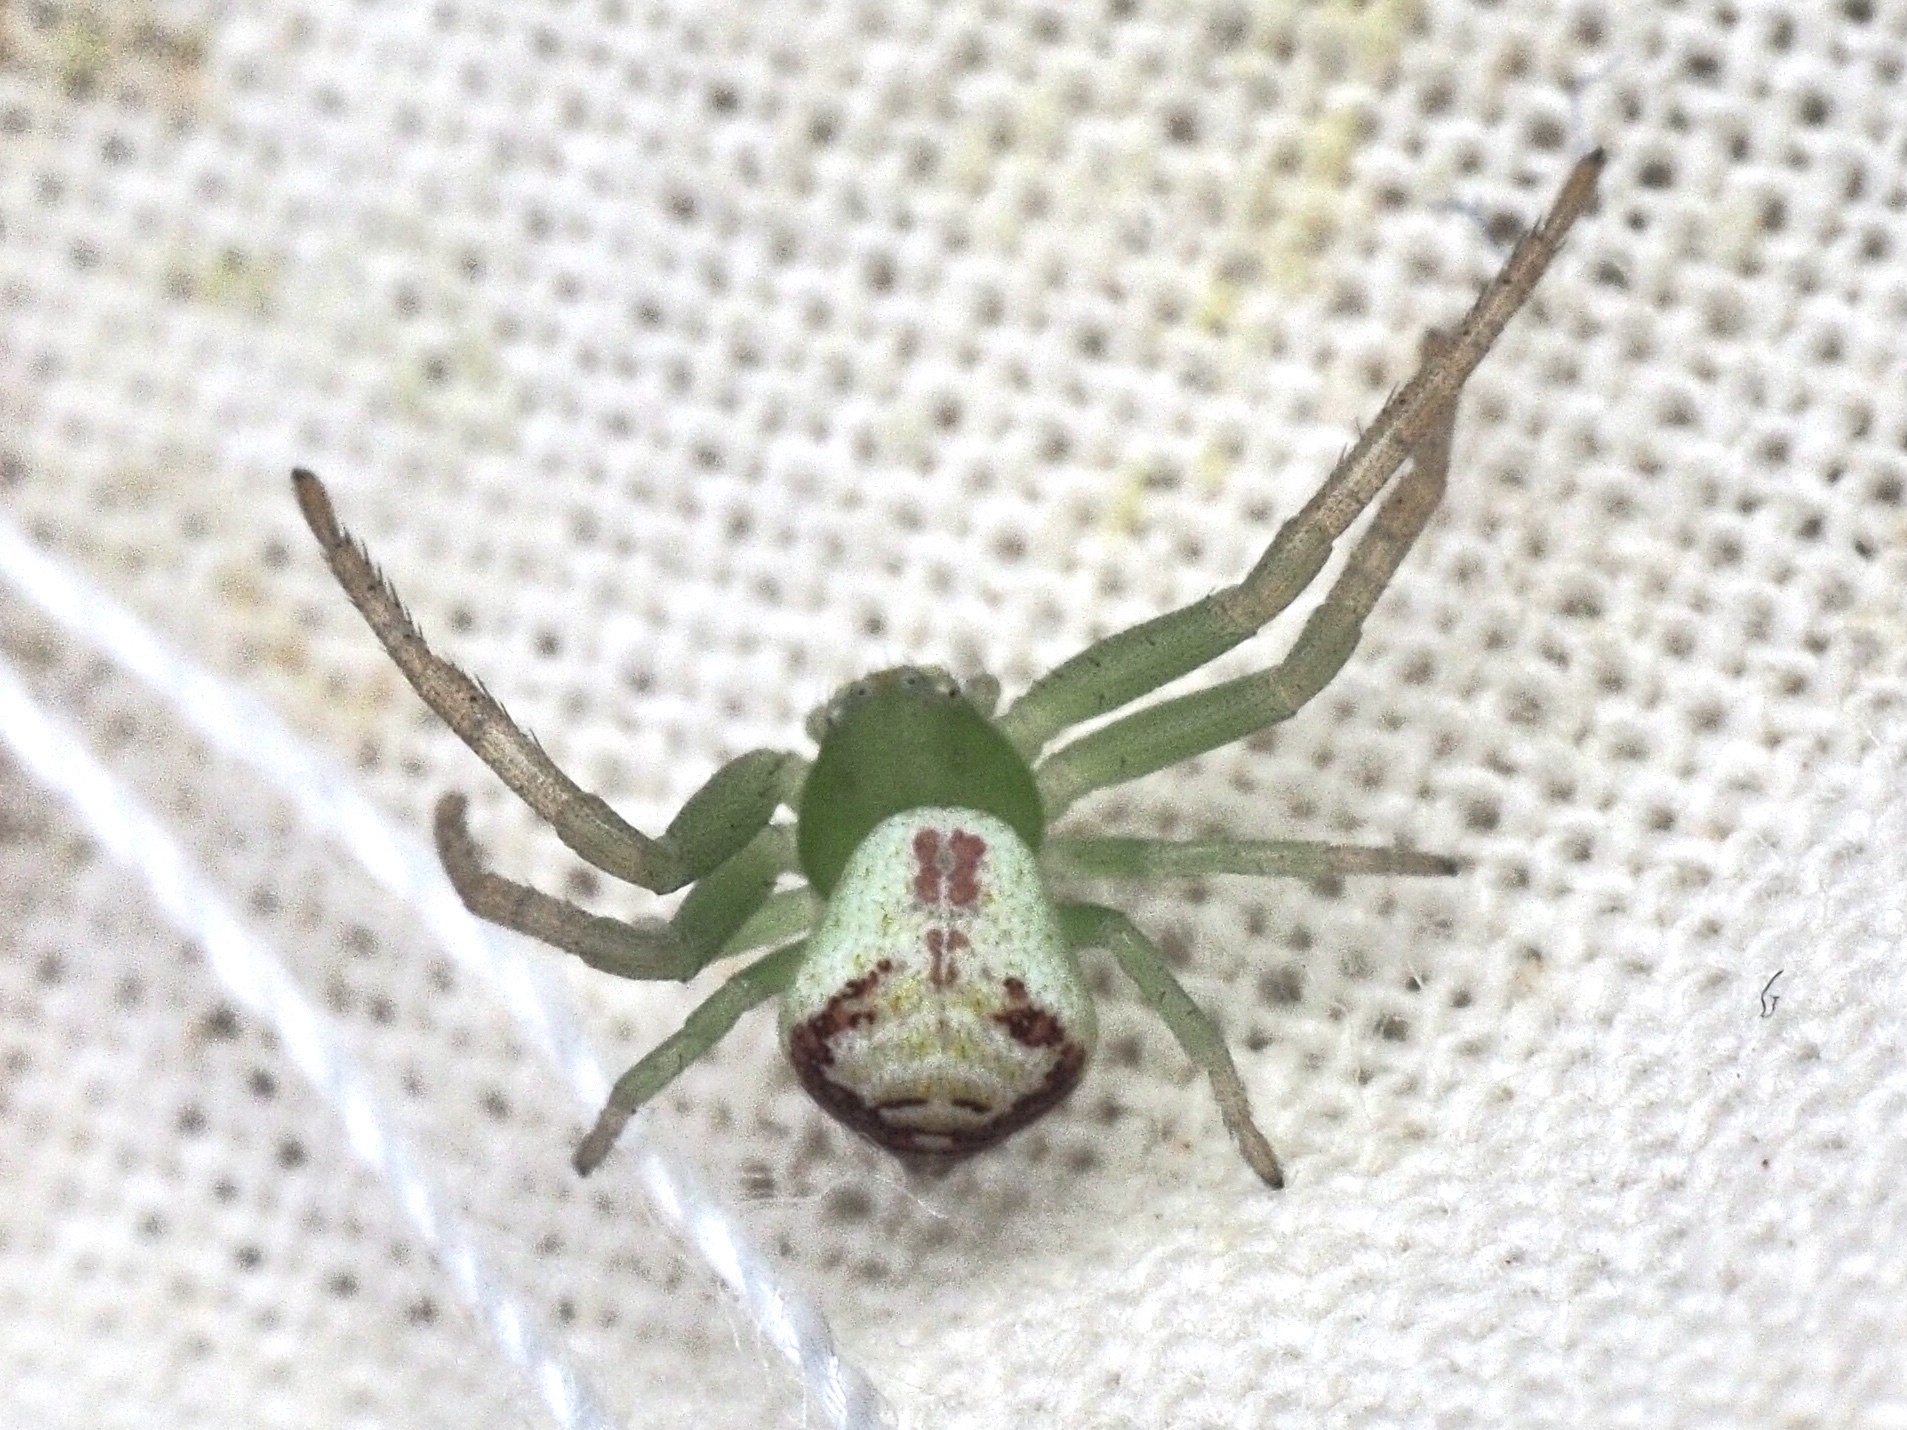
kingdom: Animalia
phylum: Arthropoda
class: Arachnida
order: Araneae
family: Thomisidae
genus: Ebrechtella
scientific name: Ebrechtella tricuspidata
